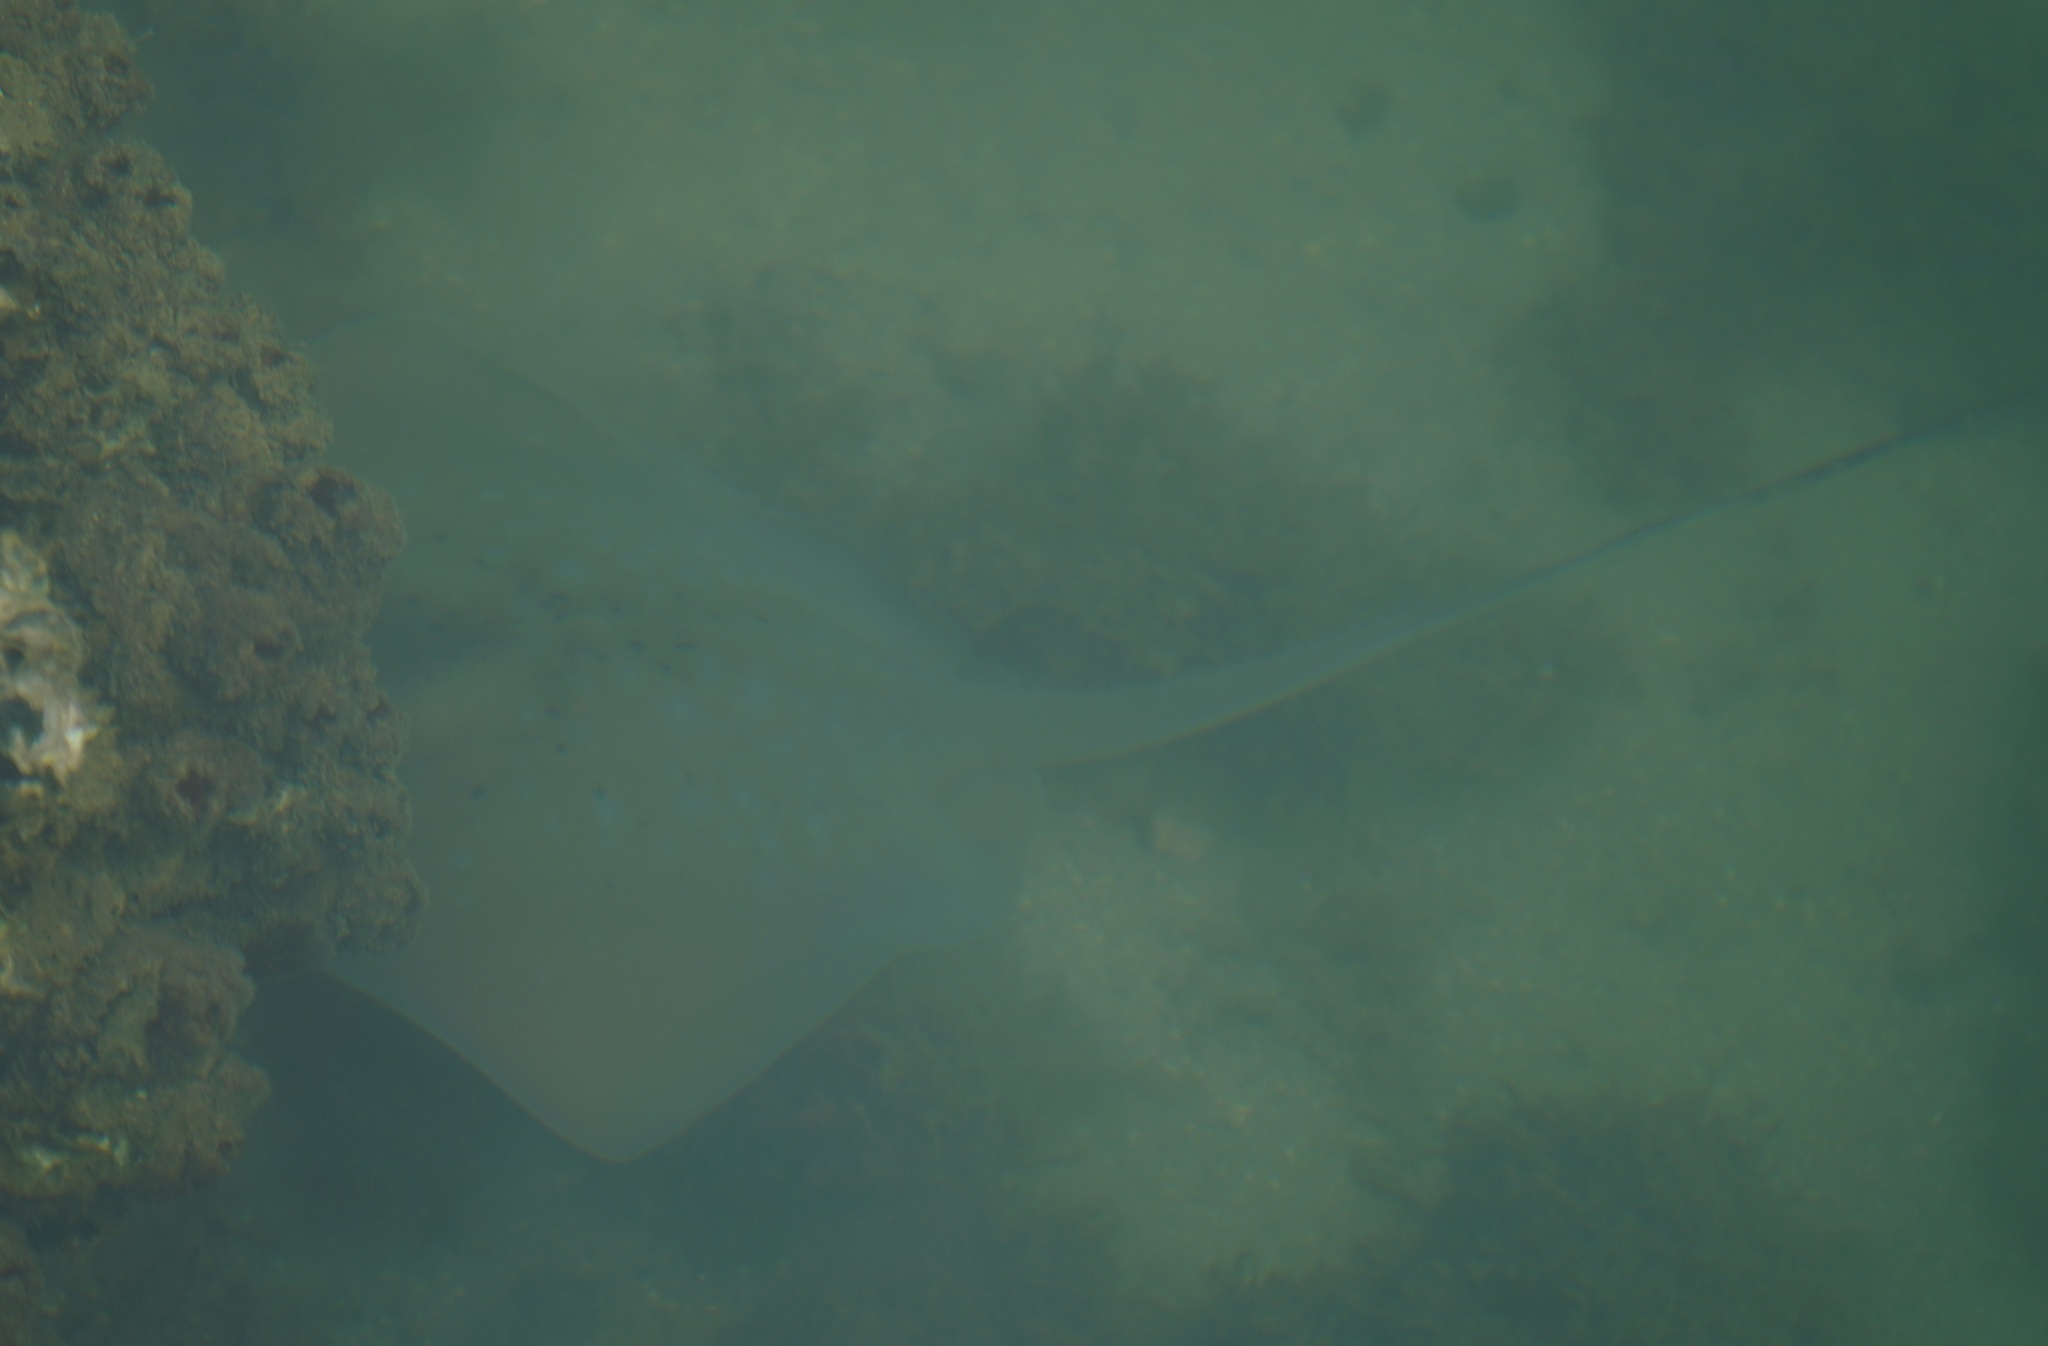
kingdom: Animalia
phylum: Chordata
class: Elasmobranchii
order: Myliobatiformes
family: Dasyatidae
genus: Neotrygon
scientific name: Neotrygon kuhlii
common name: Bluespotted stingray
